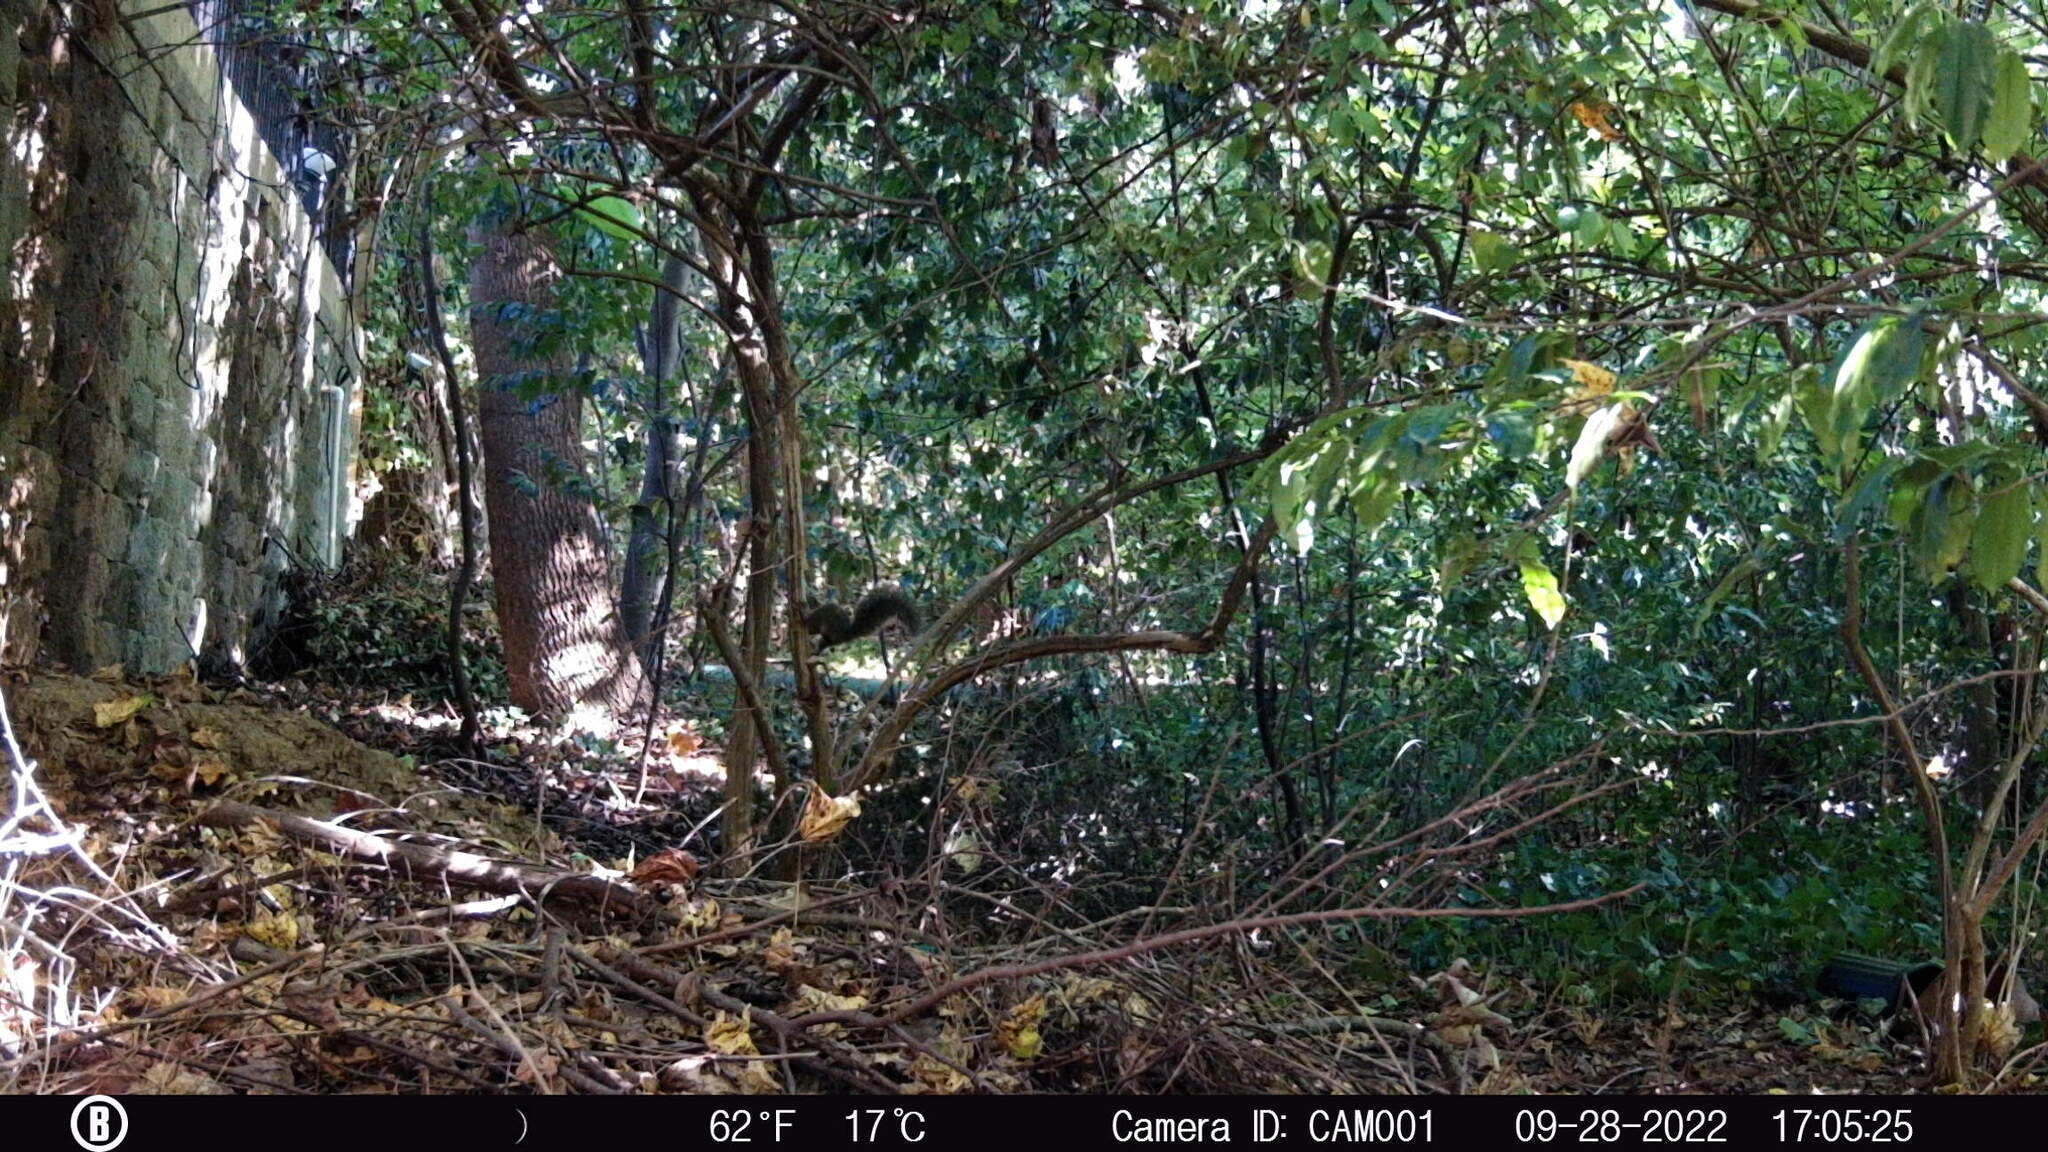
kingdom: Animalia
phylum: Chordata
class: Mammalia
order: Rodentia
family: Sciuridae
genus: Sciurus
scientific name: Sciurus carolinensis
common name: Eastern gray squirrel
